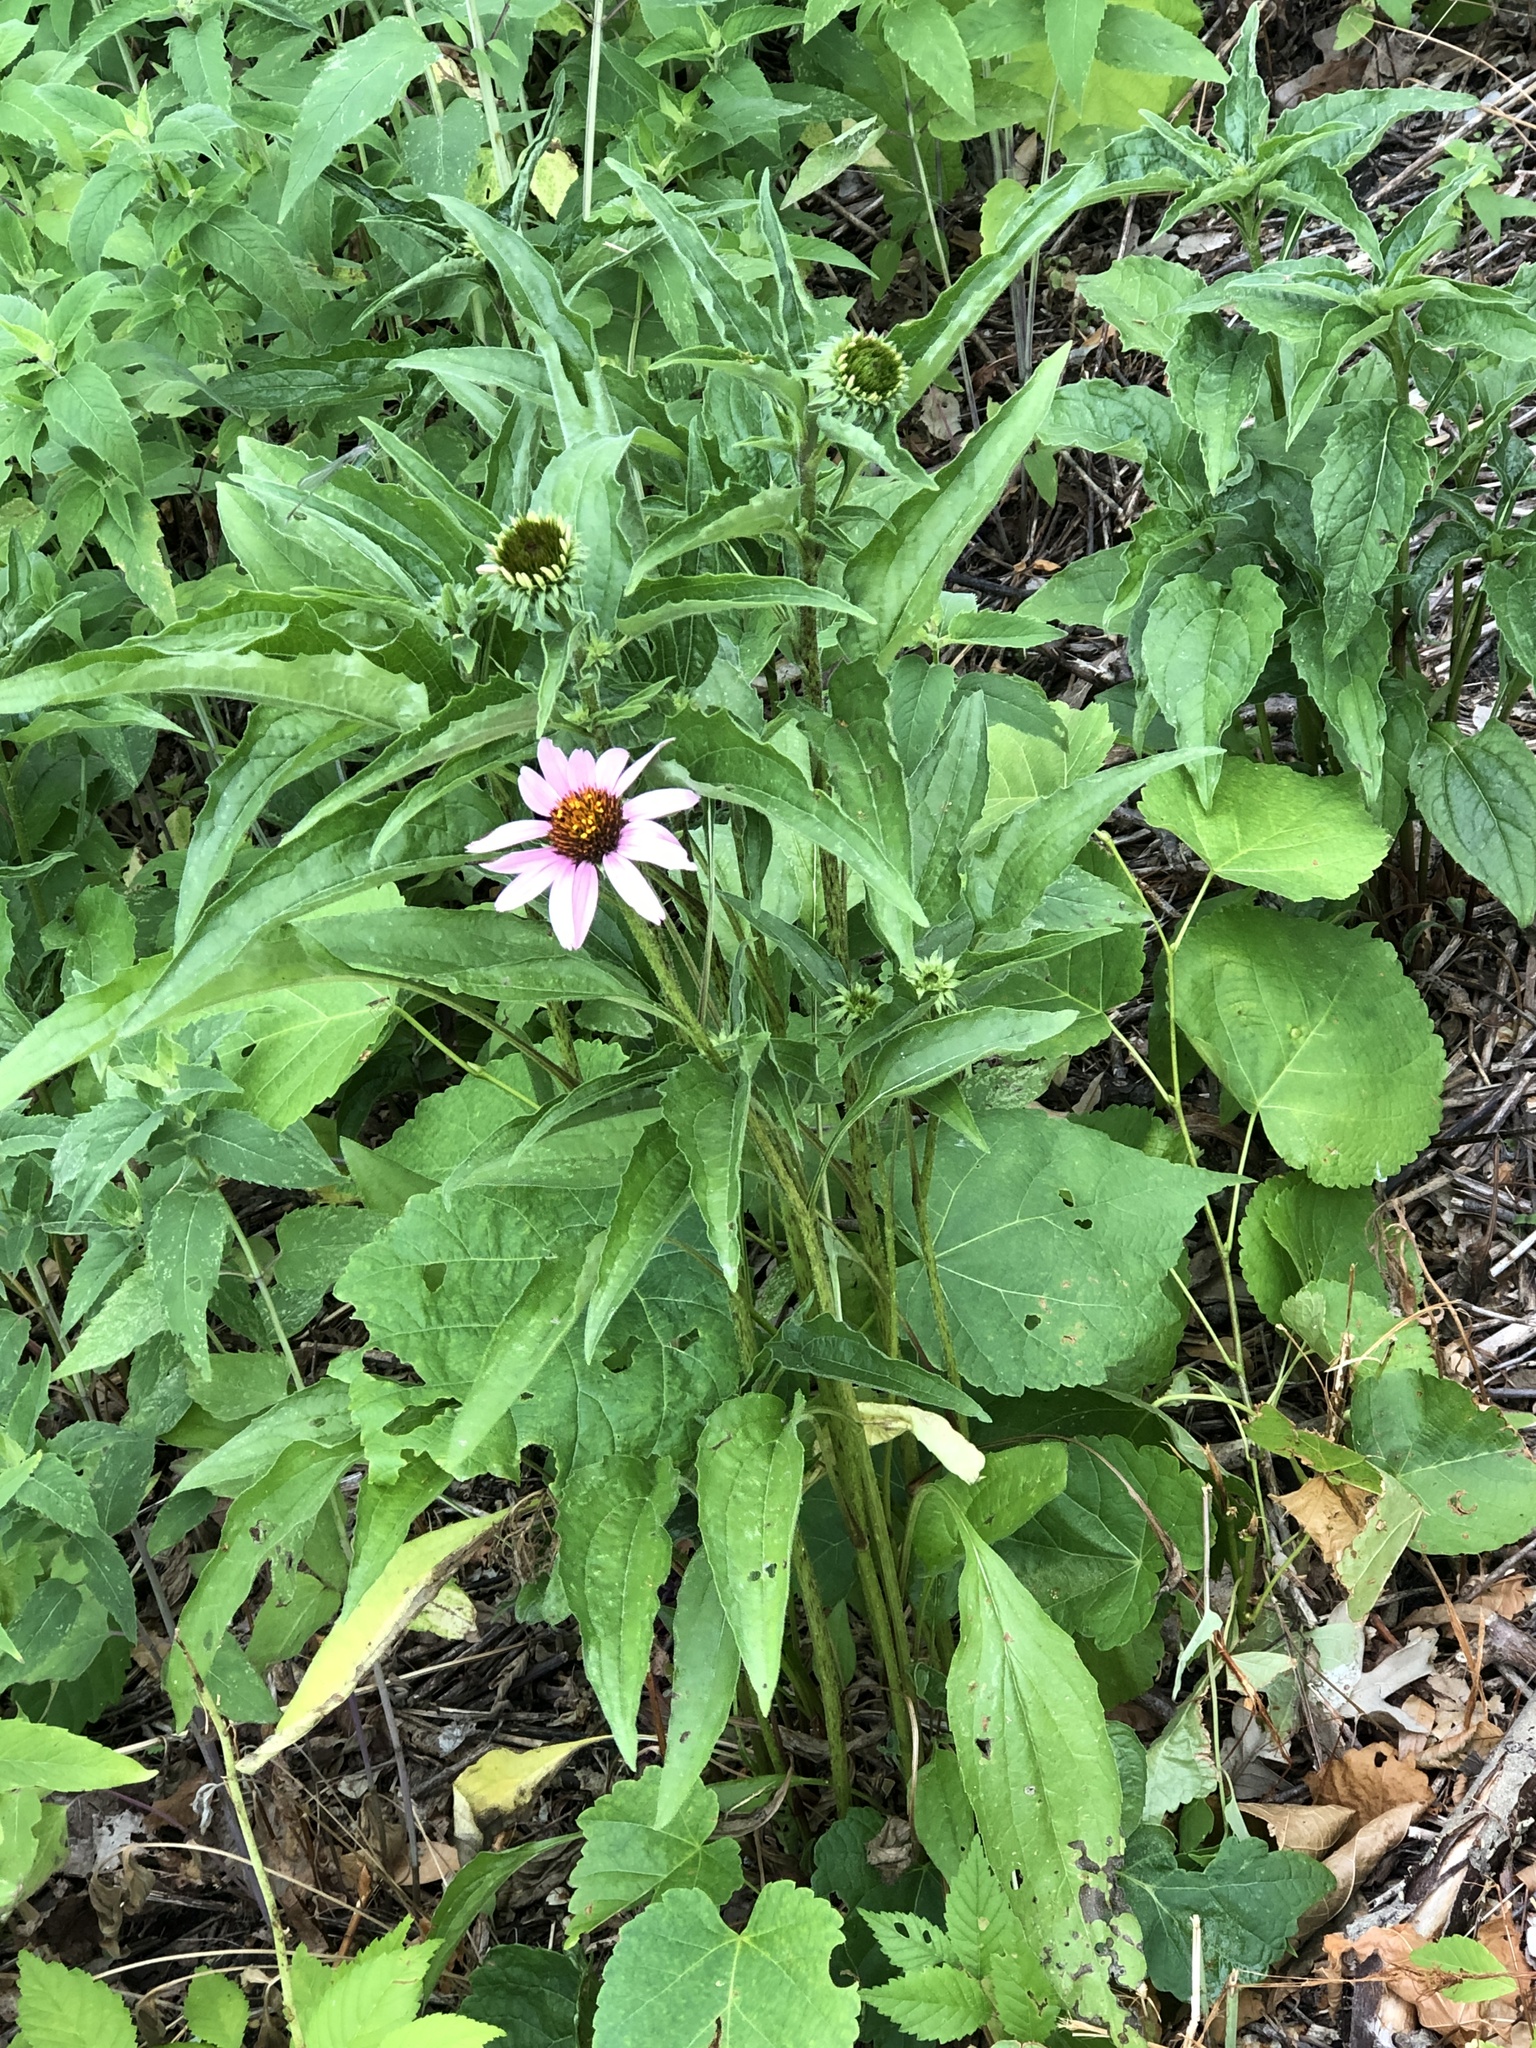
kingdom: Plantae
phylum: Tracheophyta
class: Magnoliopsida
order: Asterales
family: Asteraceae
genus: Echinacea
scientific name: Echinacea purpurea
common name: Broad-leaved purple coneflower
